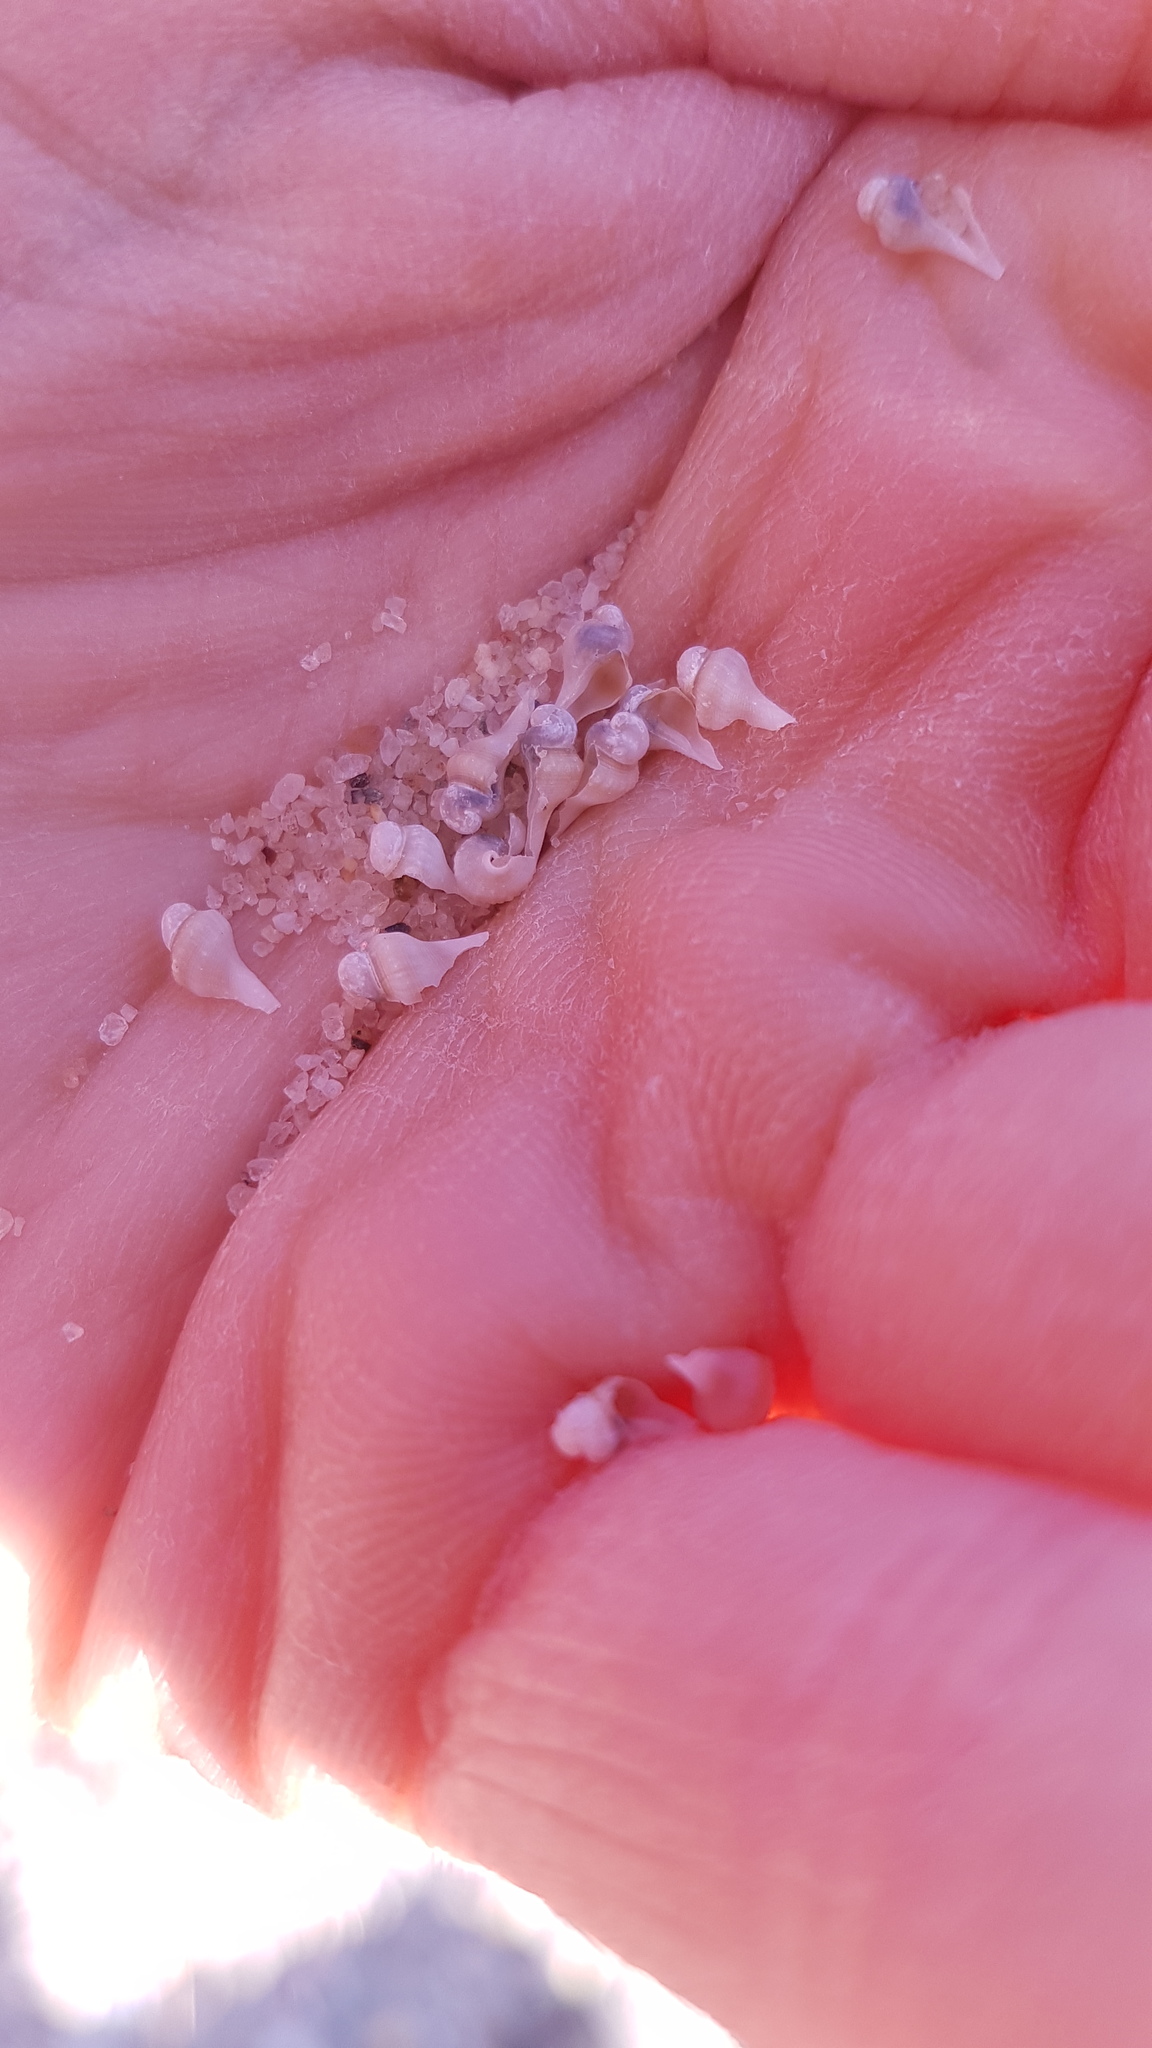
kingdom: Animalia
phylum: Mollusca
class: Gastropoda
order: Neogastropoda
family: Busyconidae
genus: Busycon
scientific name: Busycon carica
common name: Knobbed whelk
